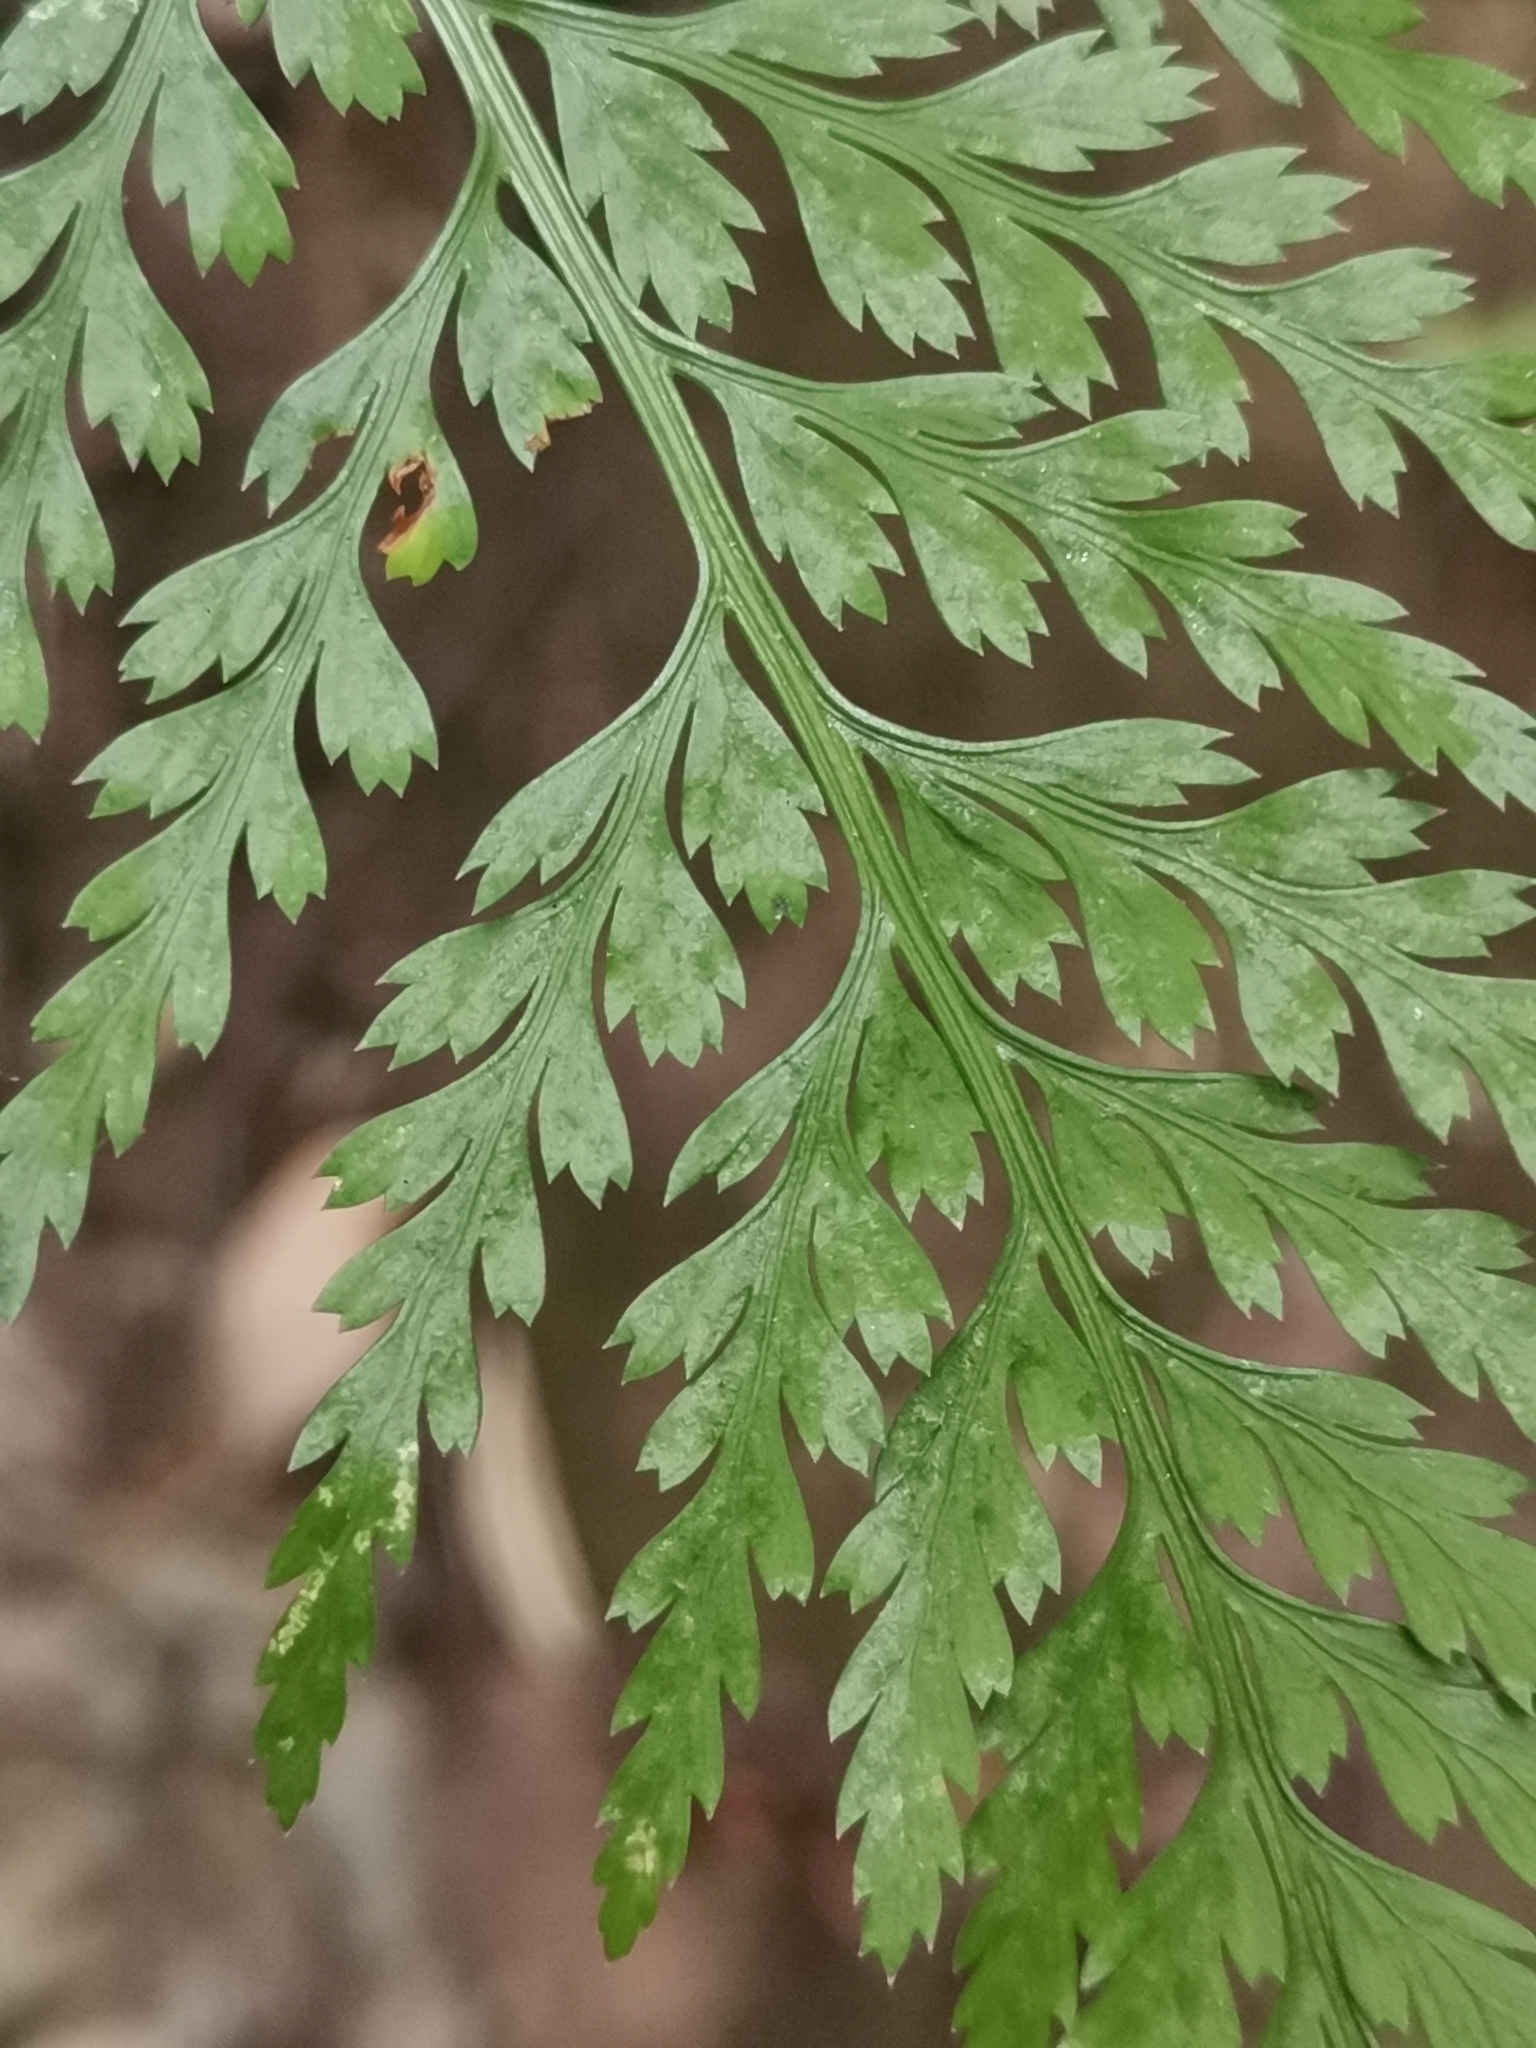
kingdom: Plantae
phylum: Tracheophyta
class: Polypodiopsida
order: Polypodiales
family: Aspleniaceae
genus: Asplenium
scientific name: Asplenium onopteris
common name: Irish spleenwort
